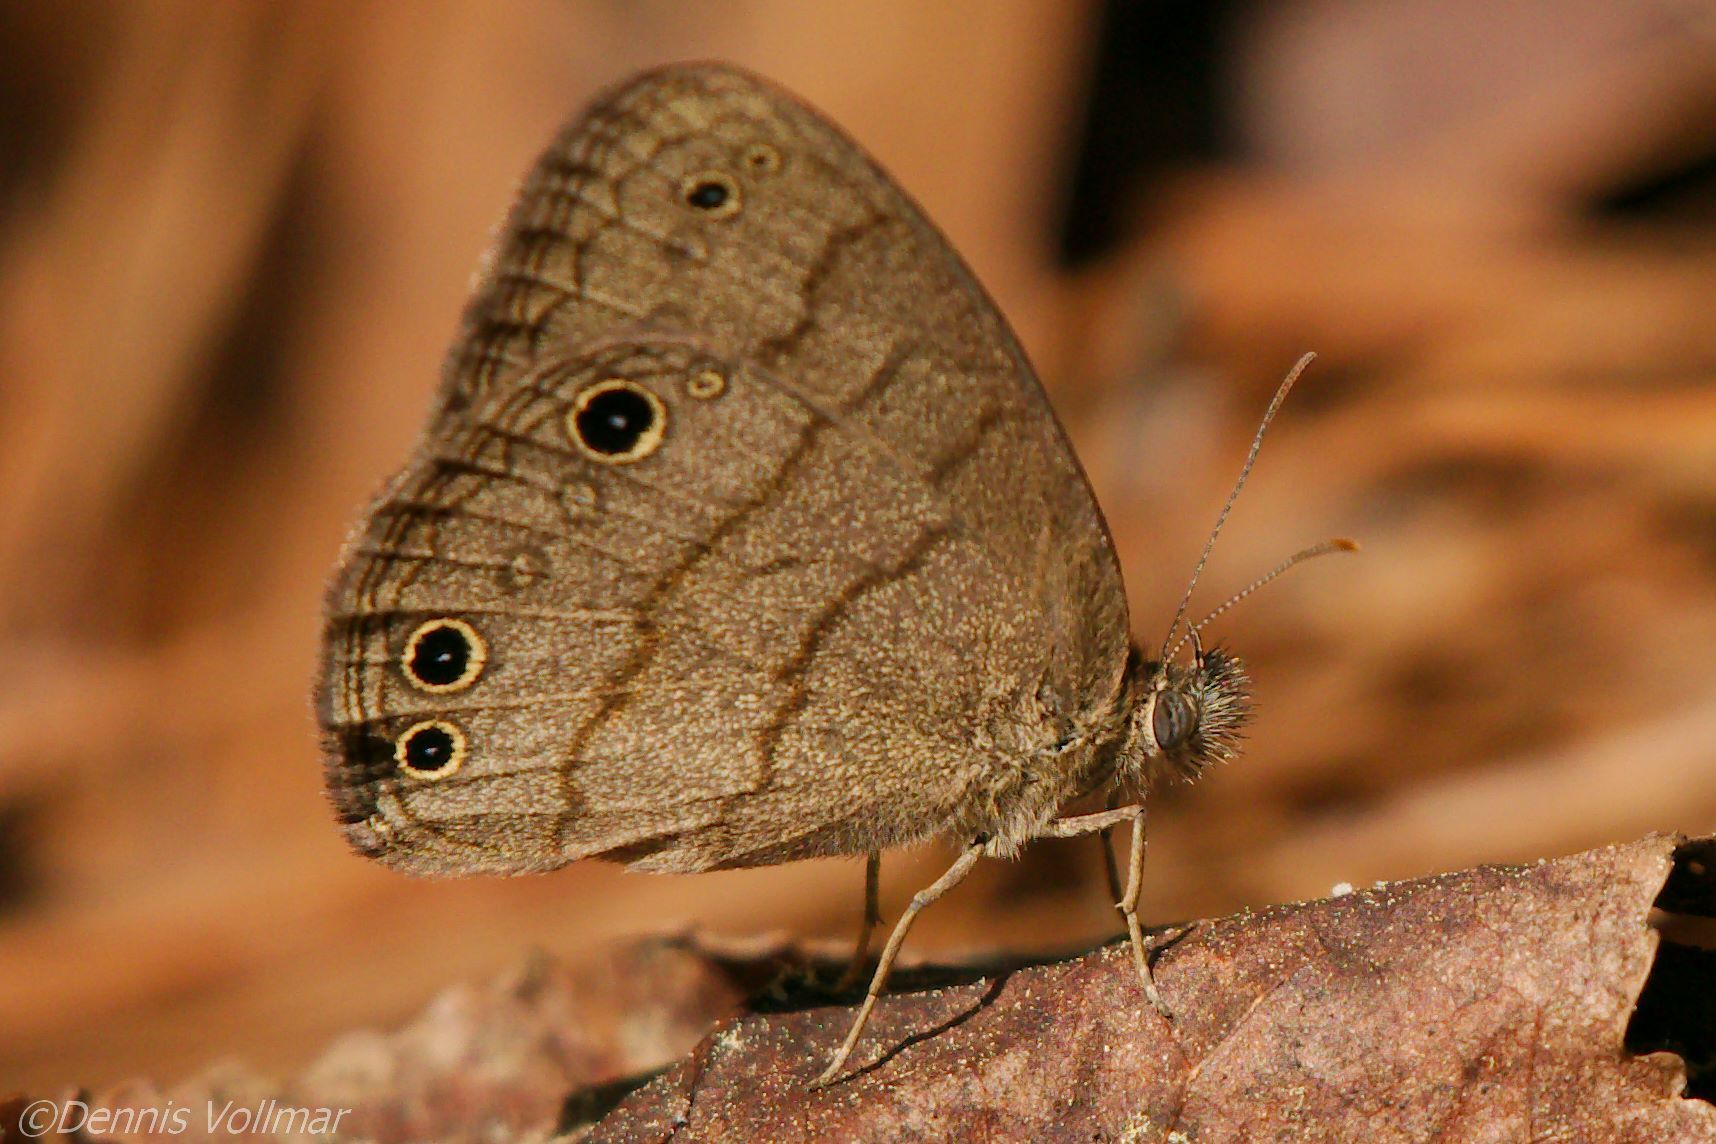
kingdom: Animalia
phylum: Arthropoda
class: Insecta
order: Lepidoptera
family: Nymphalidae
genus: Hermeuptychia
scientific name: Hermeuptychia intricata
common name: Intricate satyr
